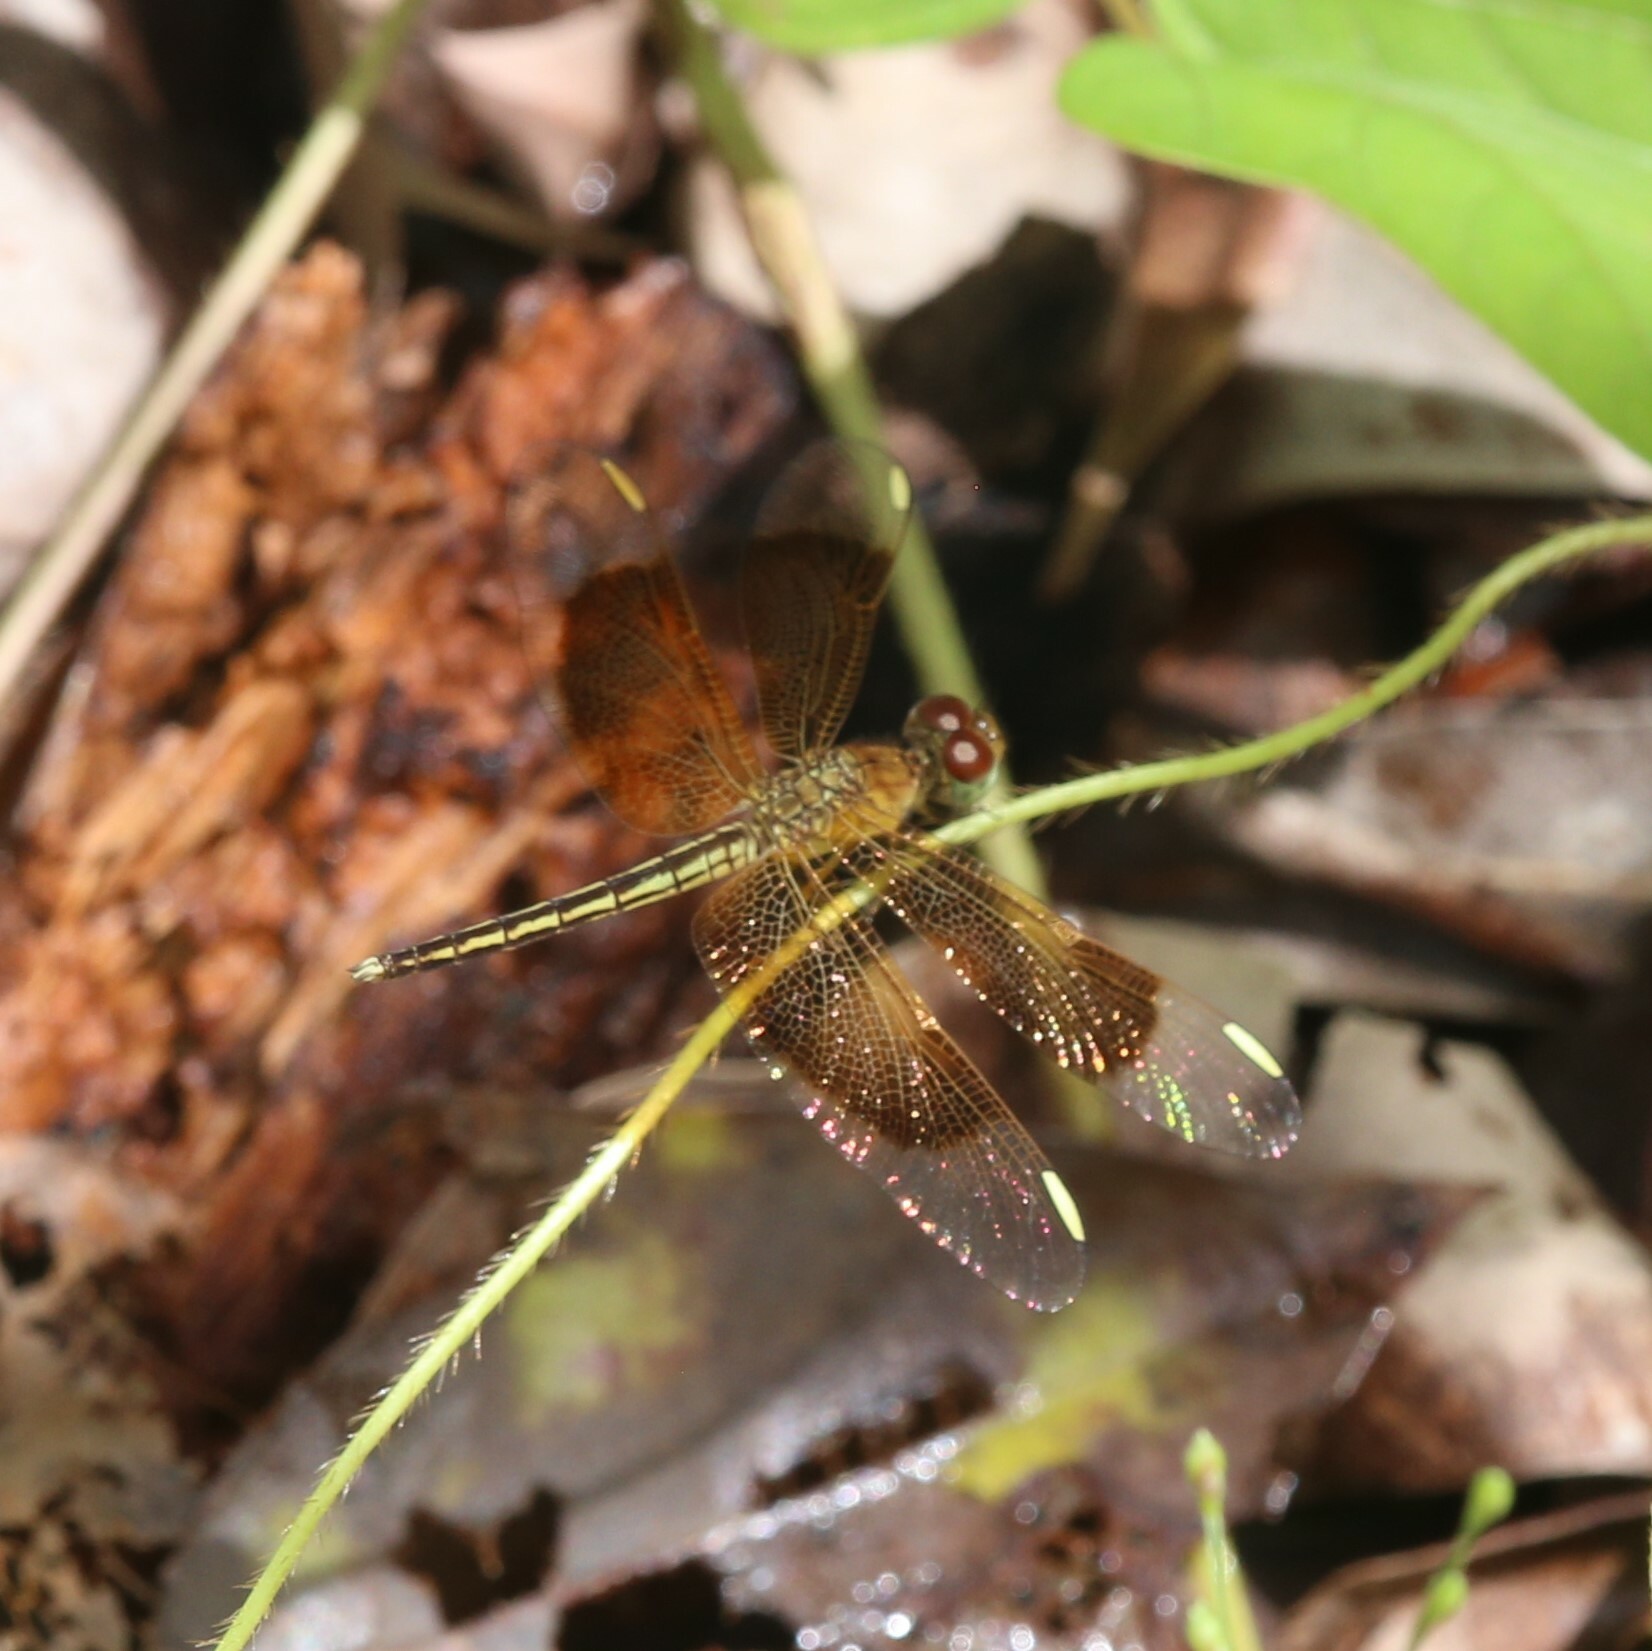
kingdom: Animalia
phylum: Arthropoda
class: Insecta
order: Odonata
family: Libellulidae
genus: Neurothemis
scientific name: Neurothemis stigmatizans
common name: Painted grasshawk
